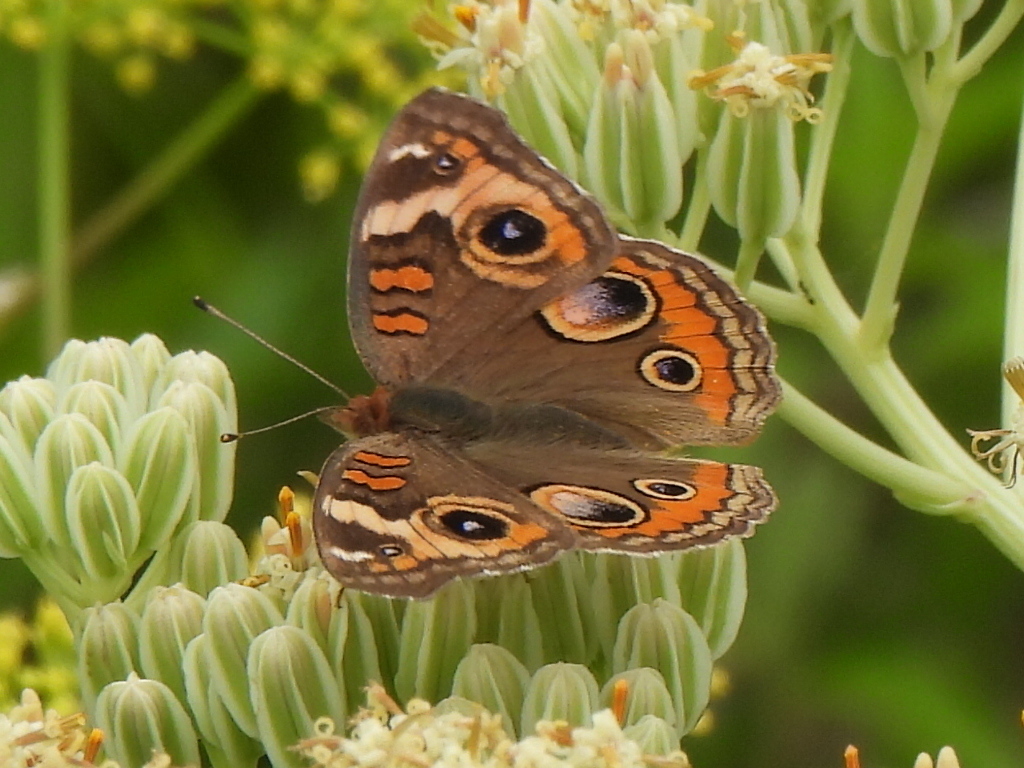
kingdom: Animalia
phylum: Arthropoda
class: Insecta
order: Lepidoptera
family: Nymphalidae
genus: Junonia
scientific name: Junonia coenia
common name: Common buckeye
